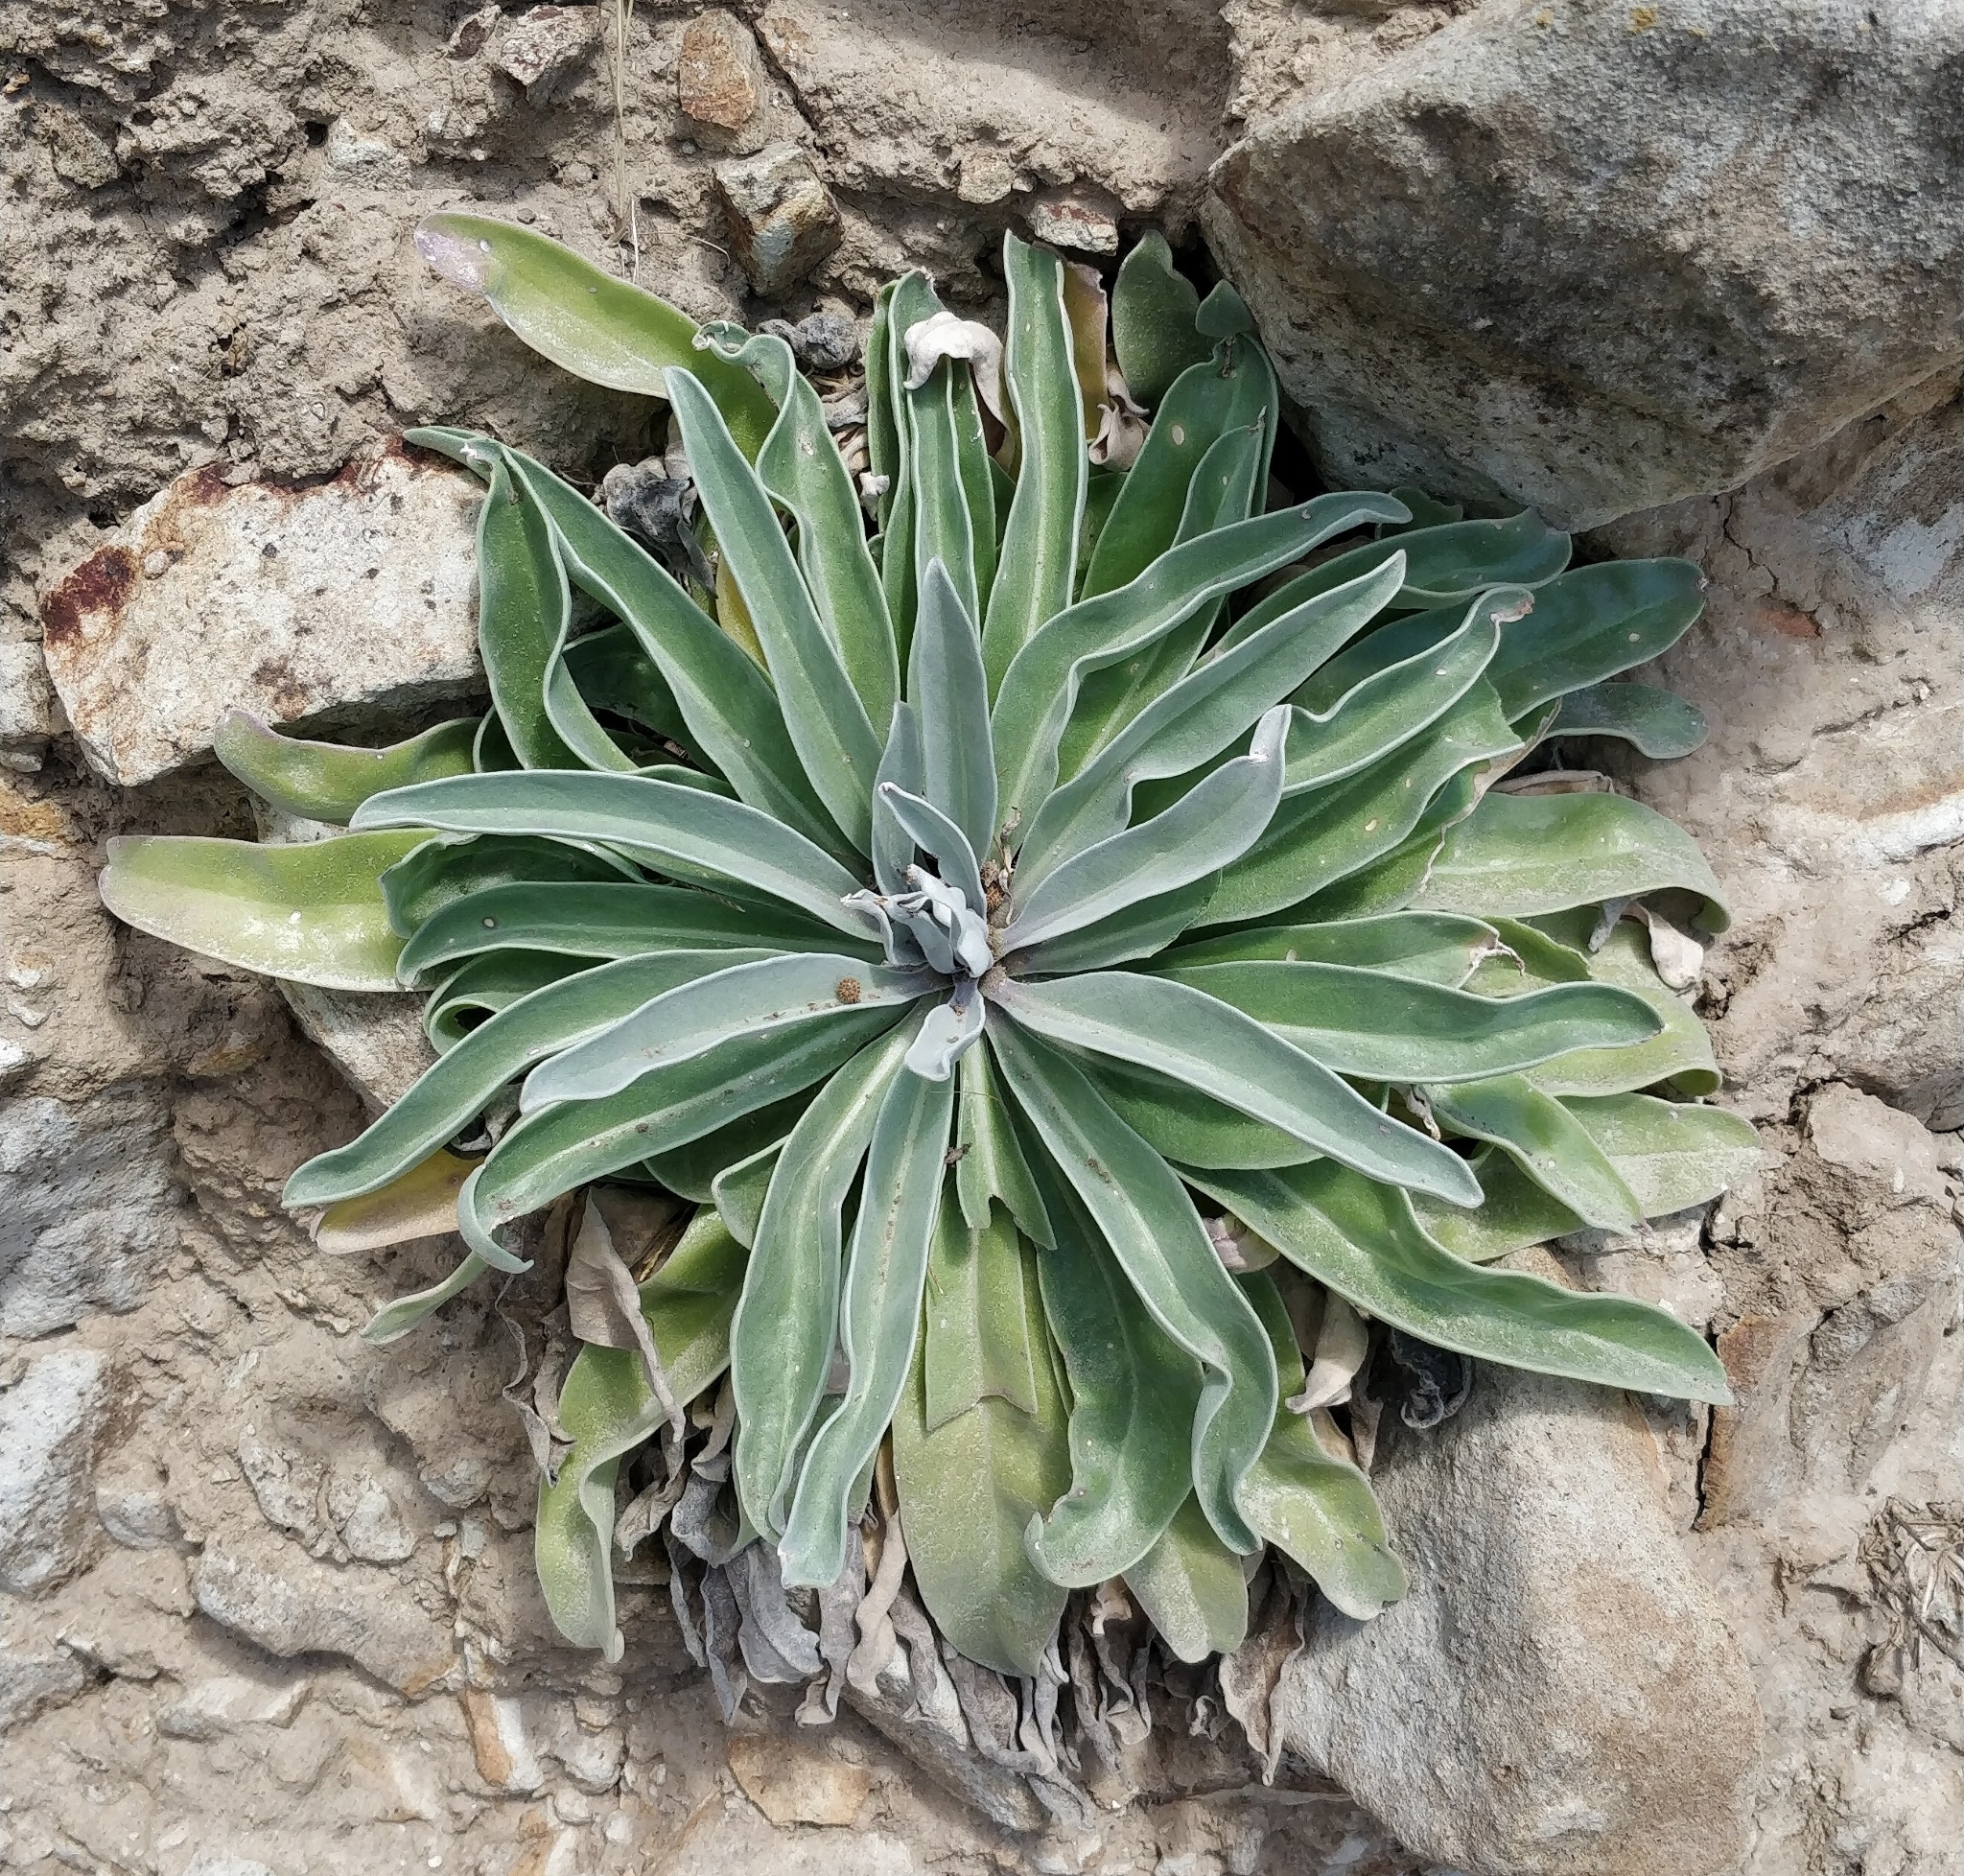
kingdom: Plantae
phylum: Tracheophyta
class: Magnoliopsida
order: Brassicales
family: Brassicaceae
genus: Matthiola
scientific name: Matthiola maderensis
